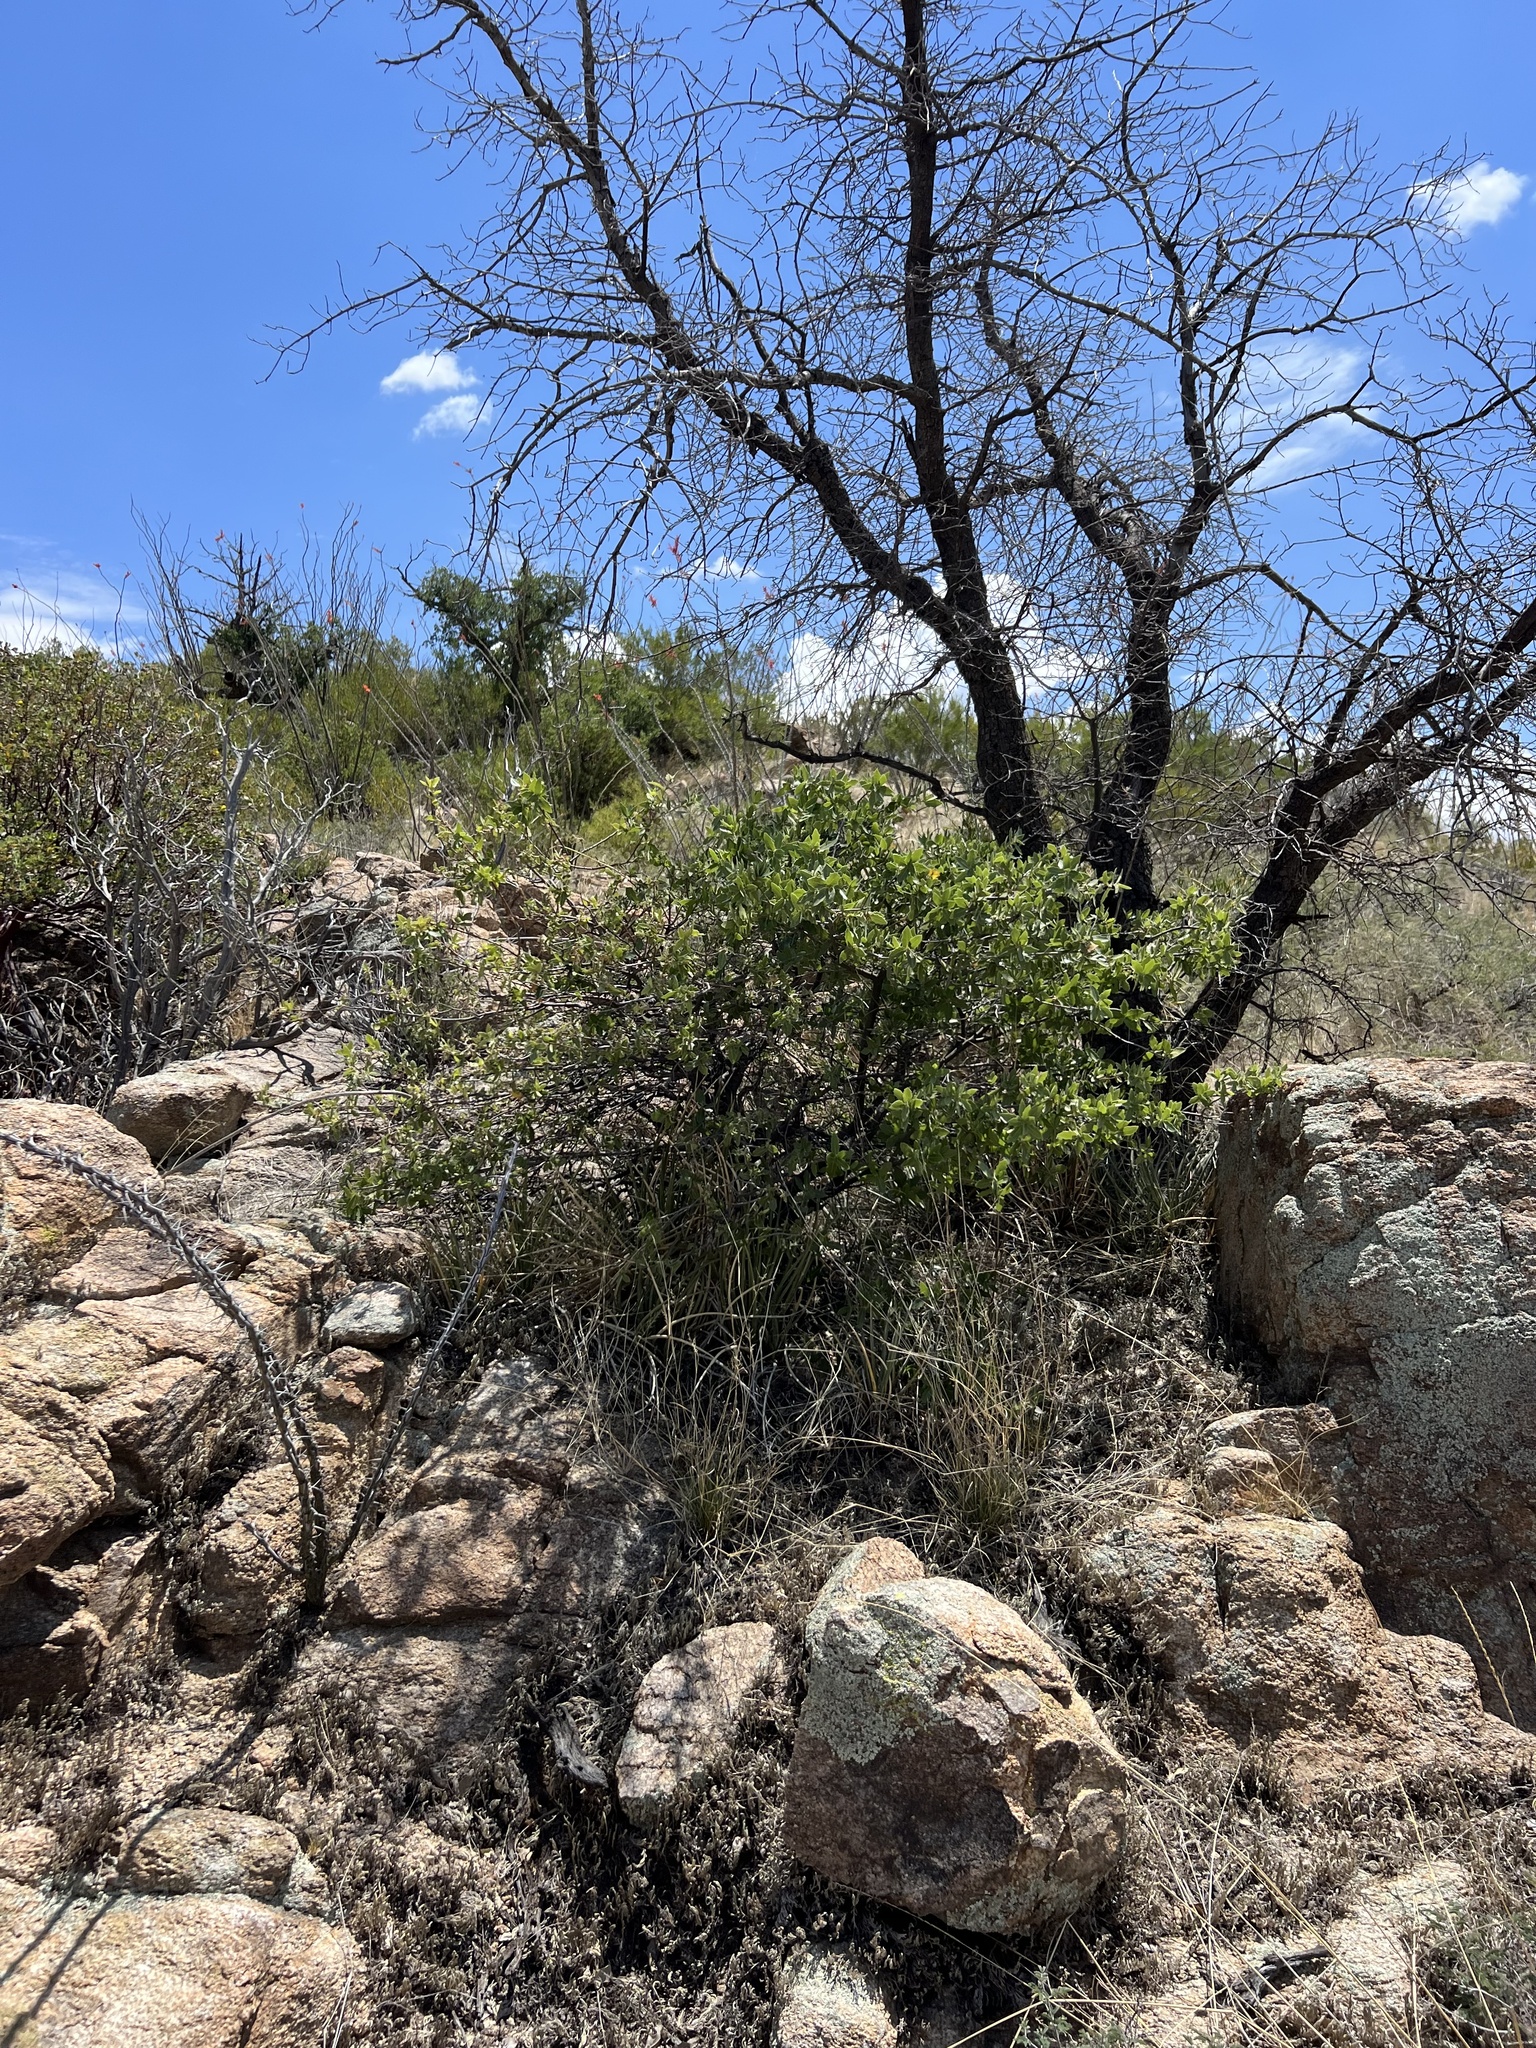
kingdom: Plantae
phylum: Tracheophyta
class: Magnoliopsida
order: Fagales
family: Fagaceae
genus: Quercus
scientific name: Quercus emoryi
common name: Emory oak
